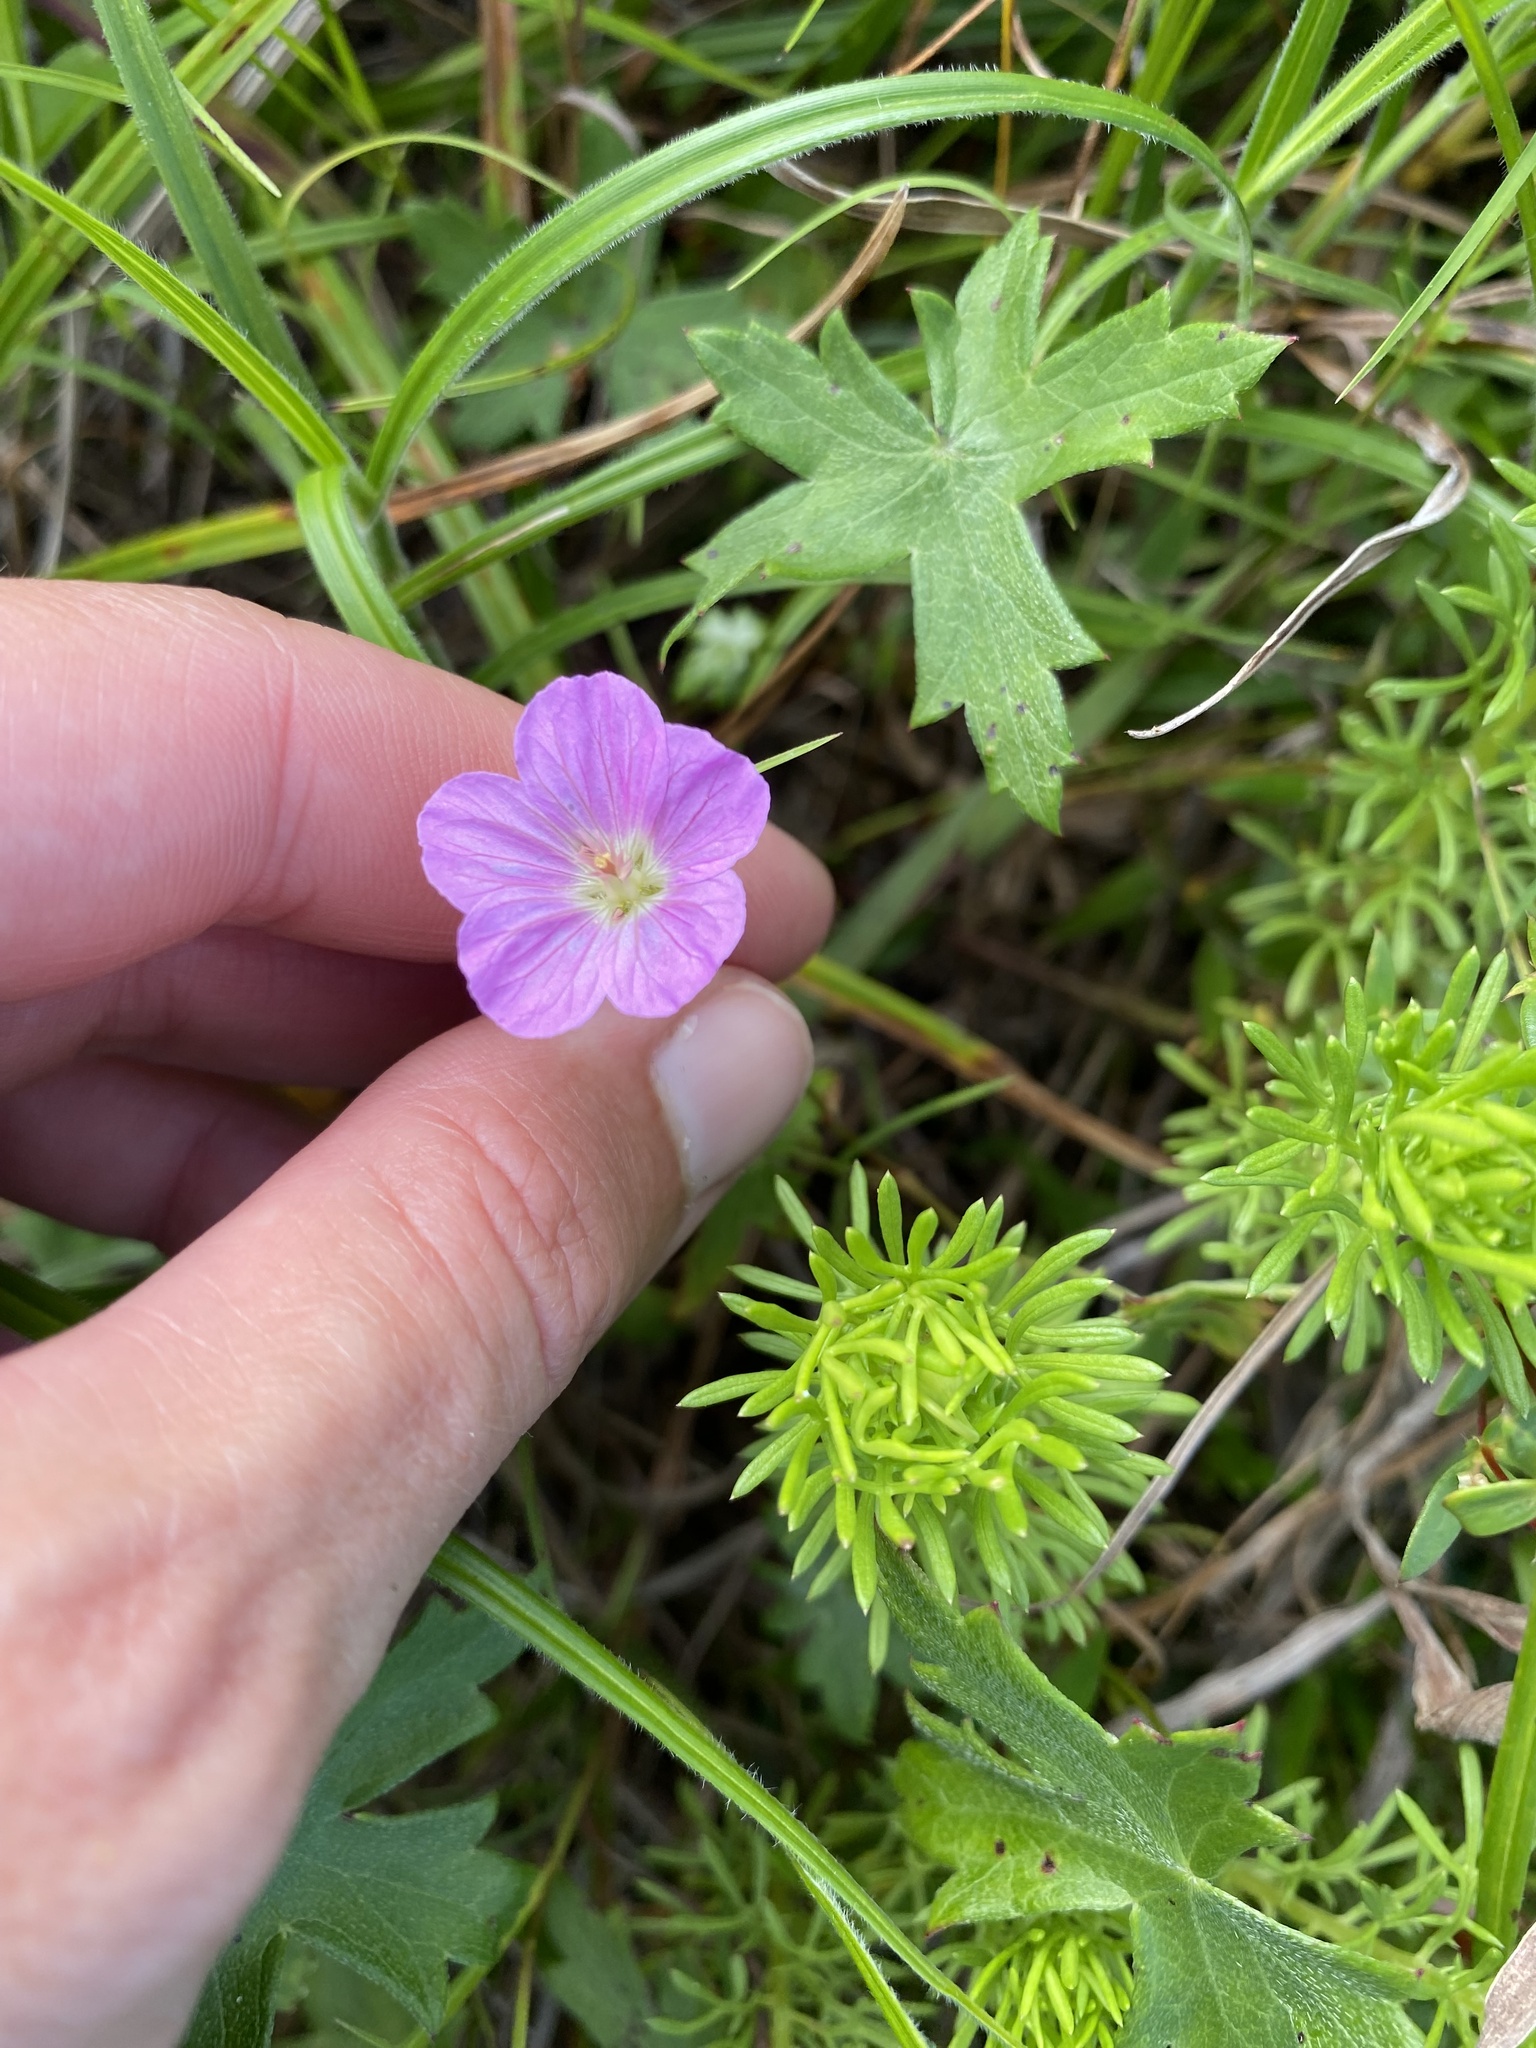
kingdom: Plantae
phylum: Tracheophyta
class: Magnoliopsida
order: Geraniales
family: Geraniaceae
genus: Geranium
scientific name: Geranium incanum
